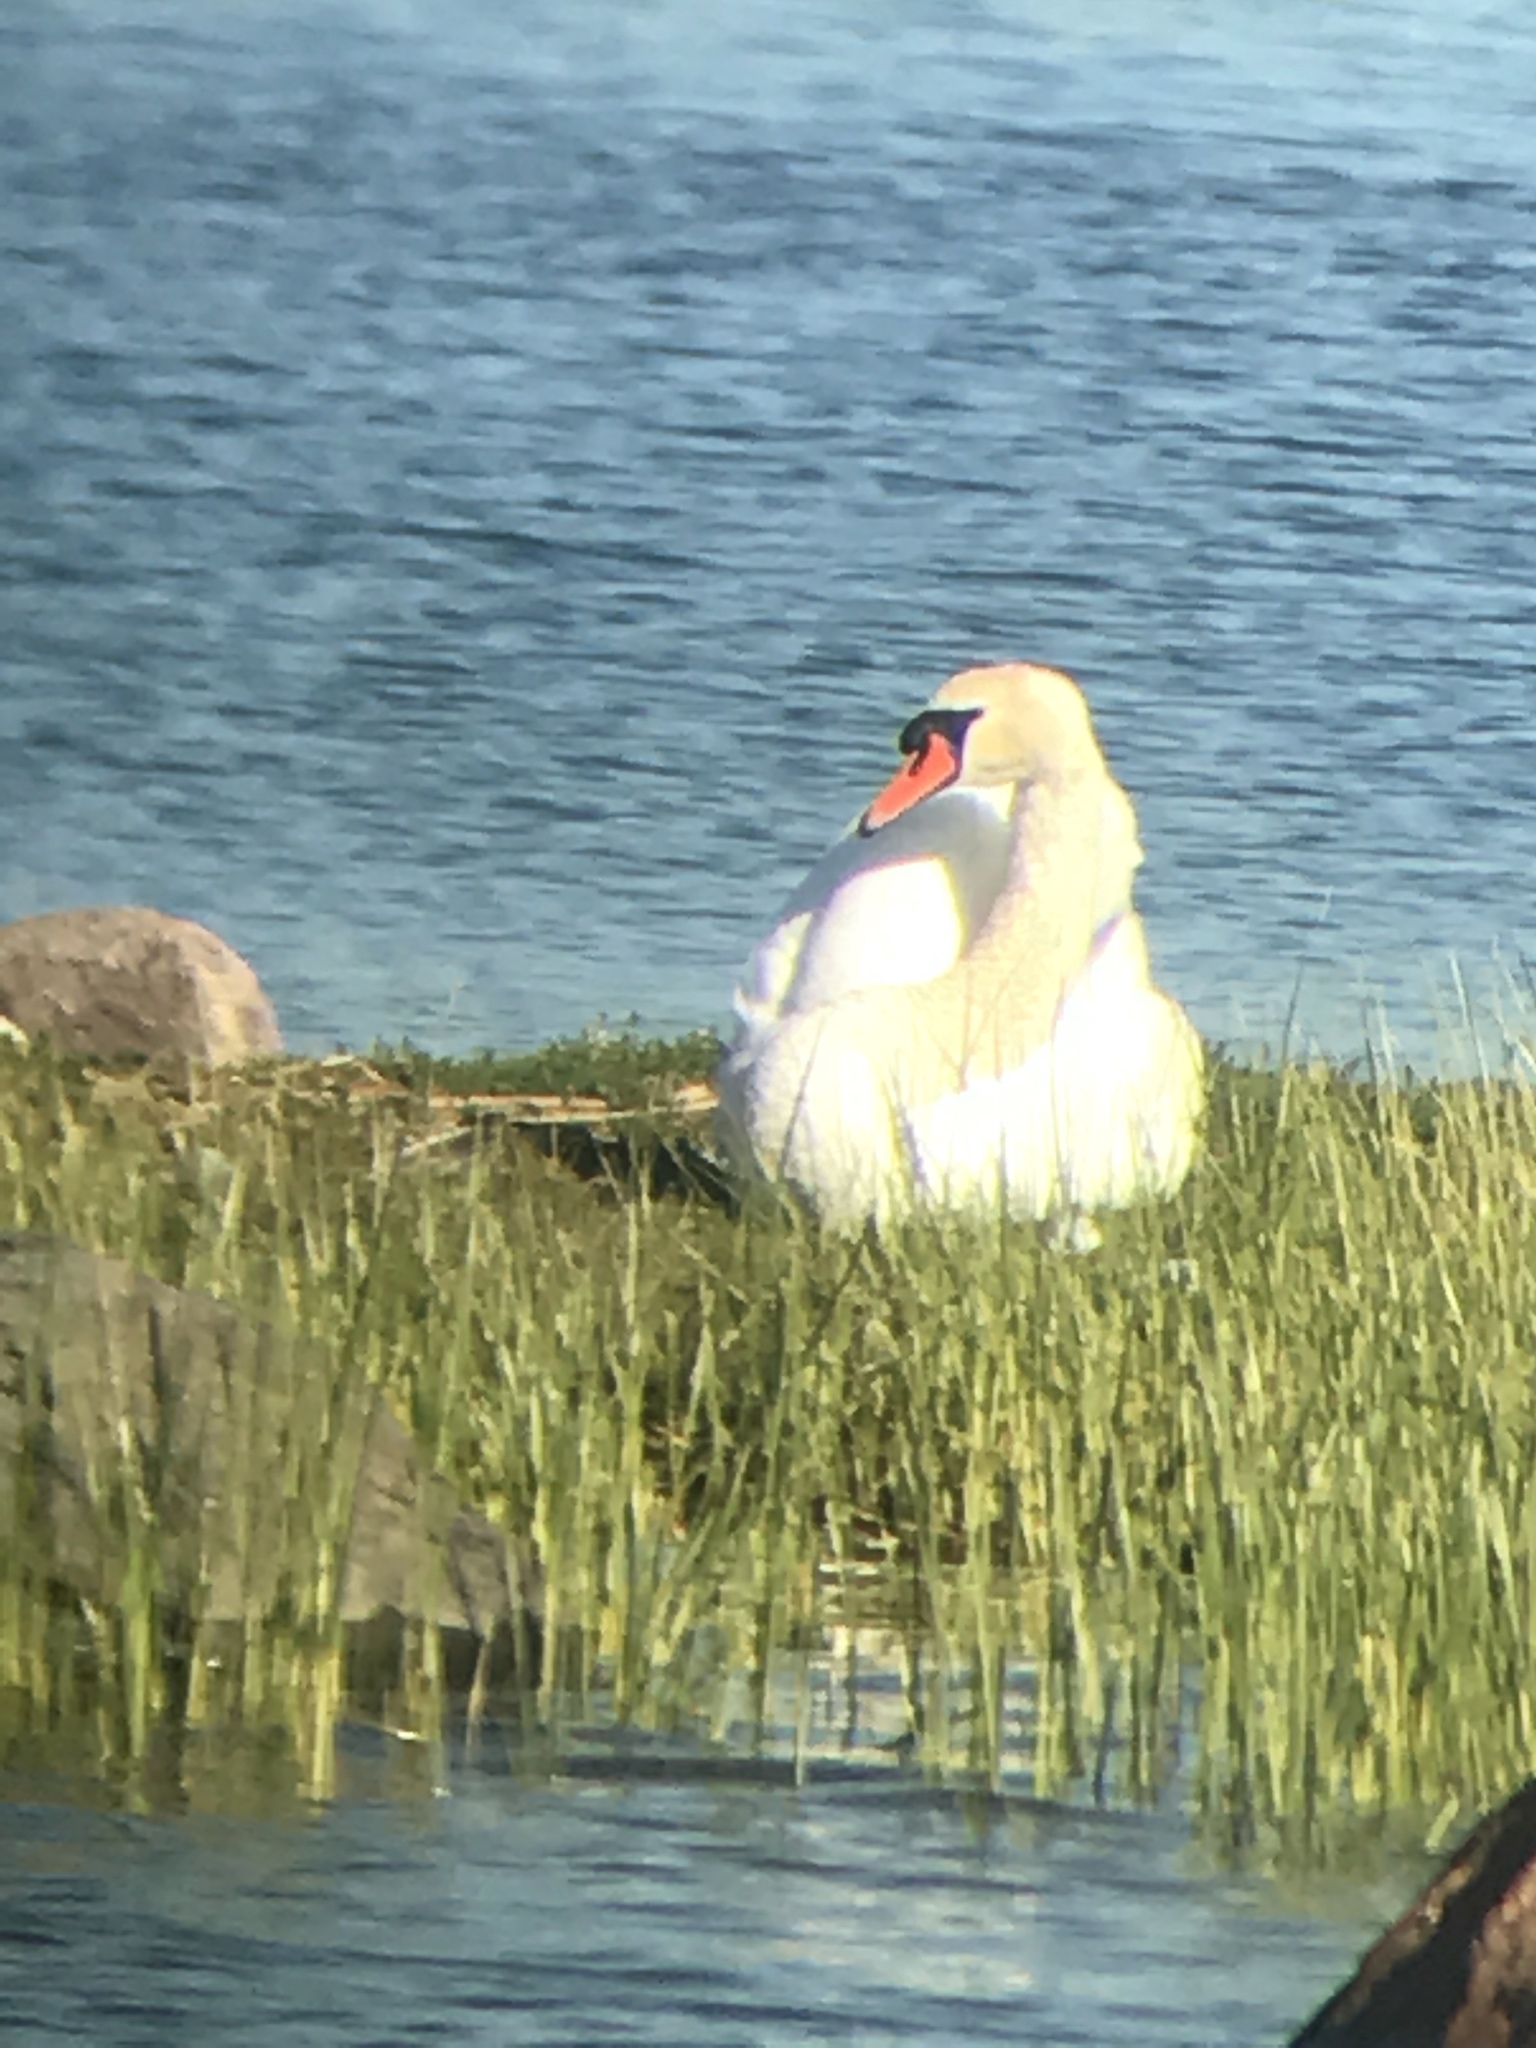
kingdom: Animalia
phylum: Chordata
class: Aves
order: Anseriformes
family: Anatidae
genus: Cygnus
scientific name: Cygnus olor
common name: Mute swan
